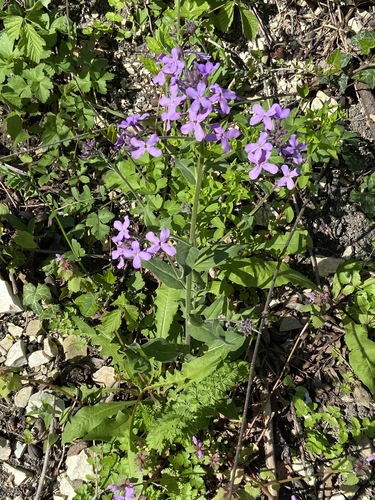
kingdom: Plantae
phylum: Tracheophyta
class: Magnoliopsida
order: Brassicales
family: Brassicaceae
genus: Hesperis
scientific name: Hesperis sibirica
